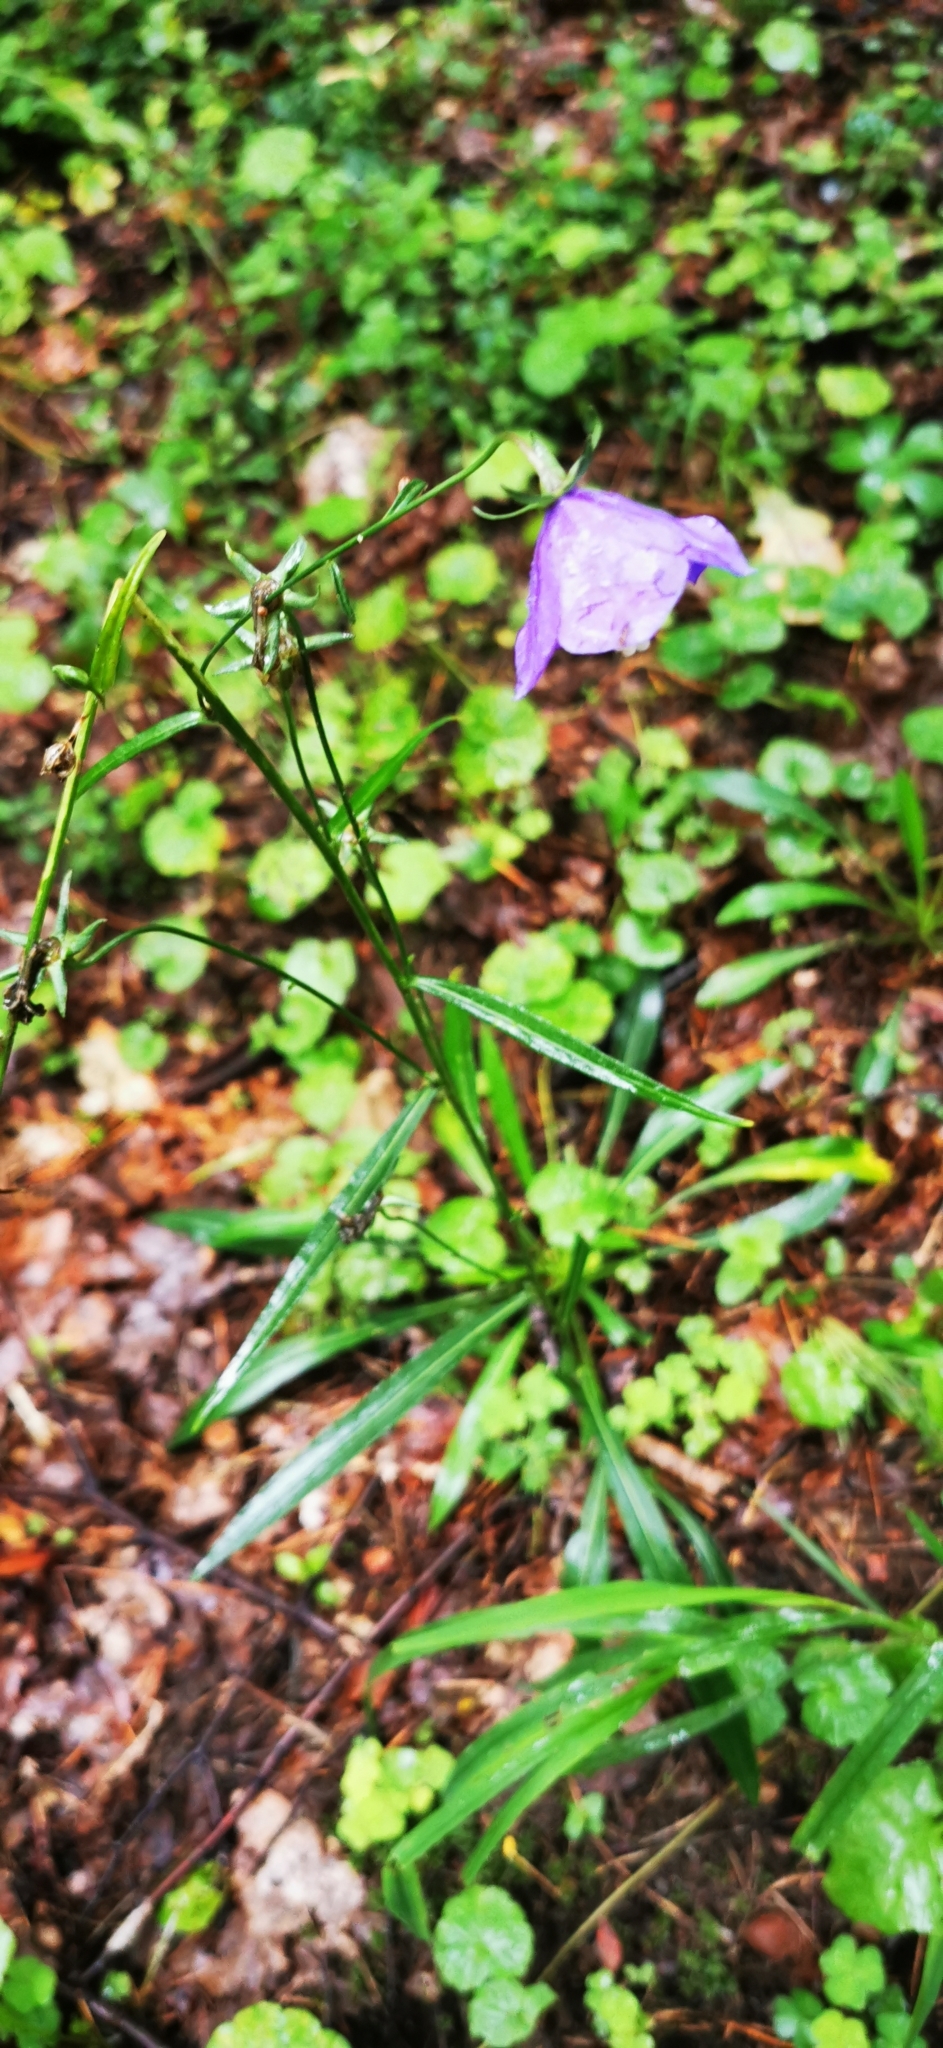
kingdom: Plantae
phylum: Tracheophyta
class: Magnoliopsida
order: Asterales
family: Campanulaceae
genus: Campanula
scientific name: Campanula persicifolia
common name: Peach-leaved bellflower
